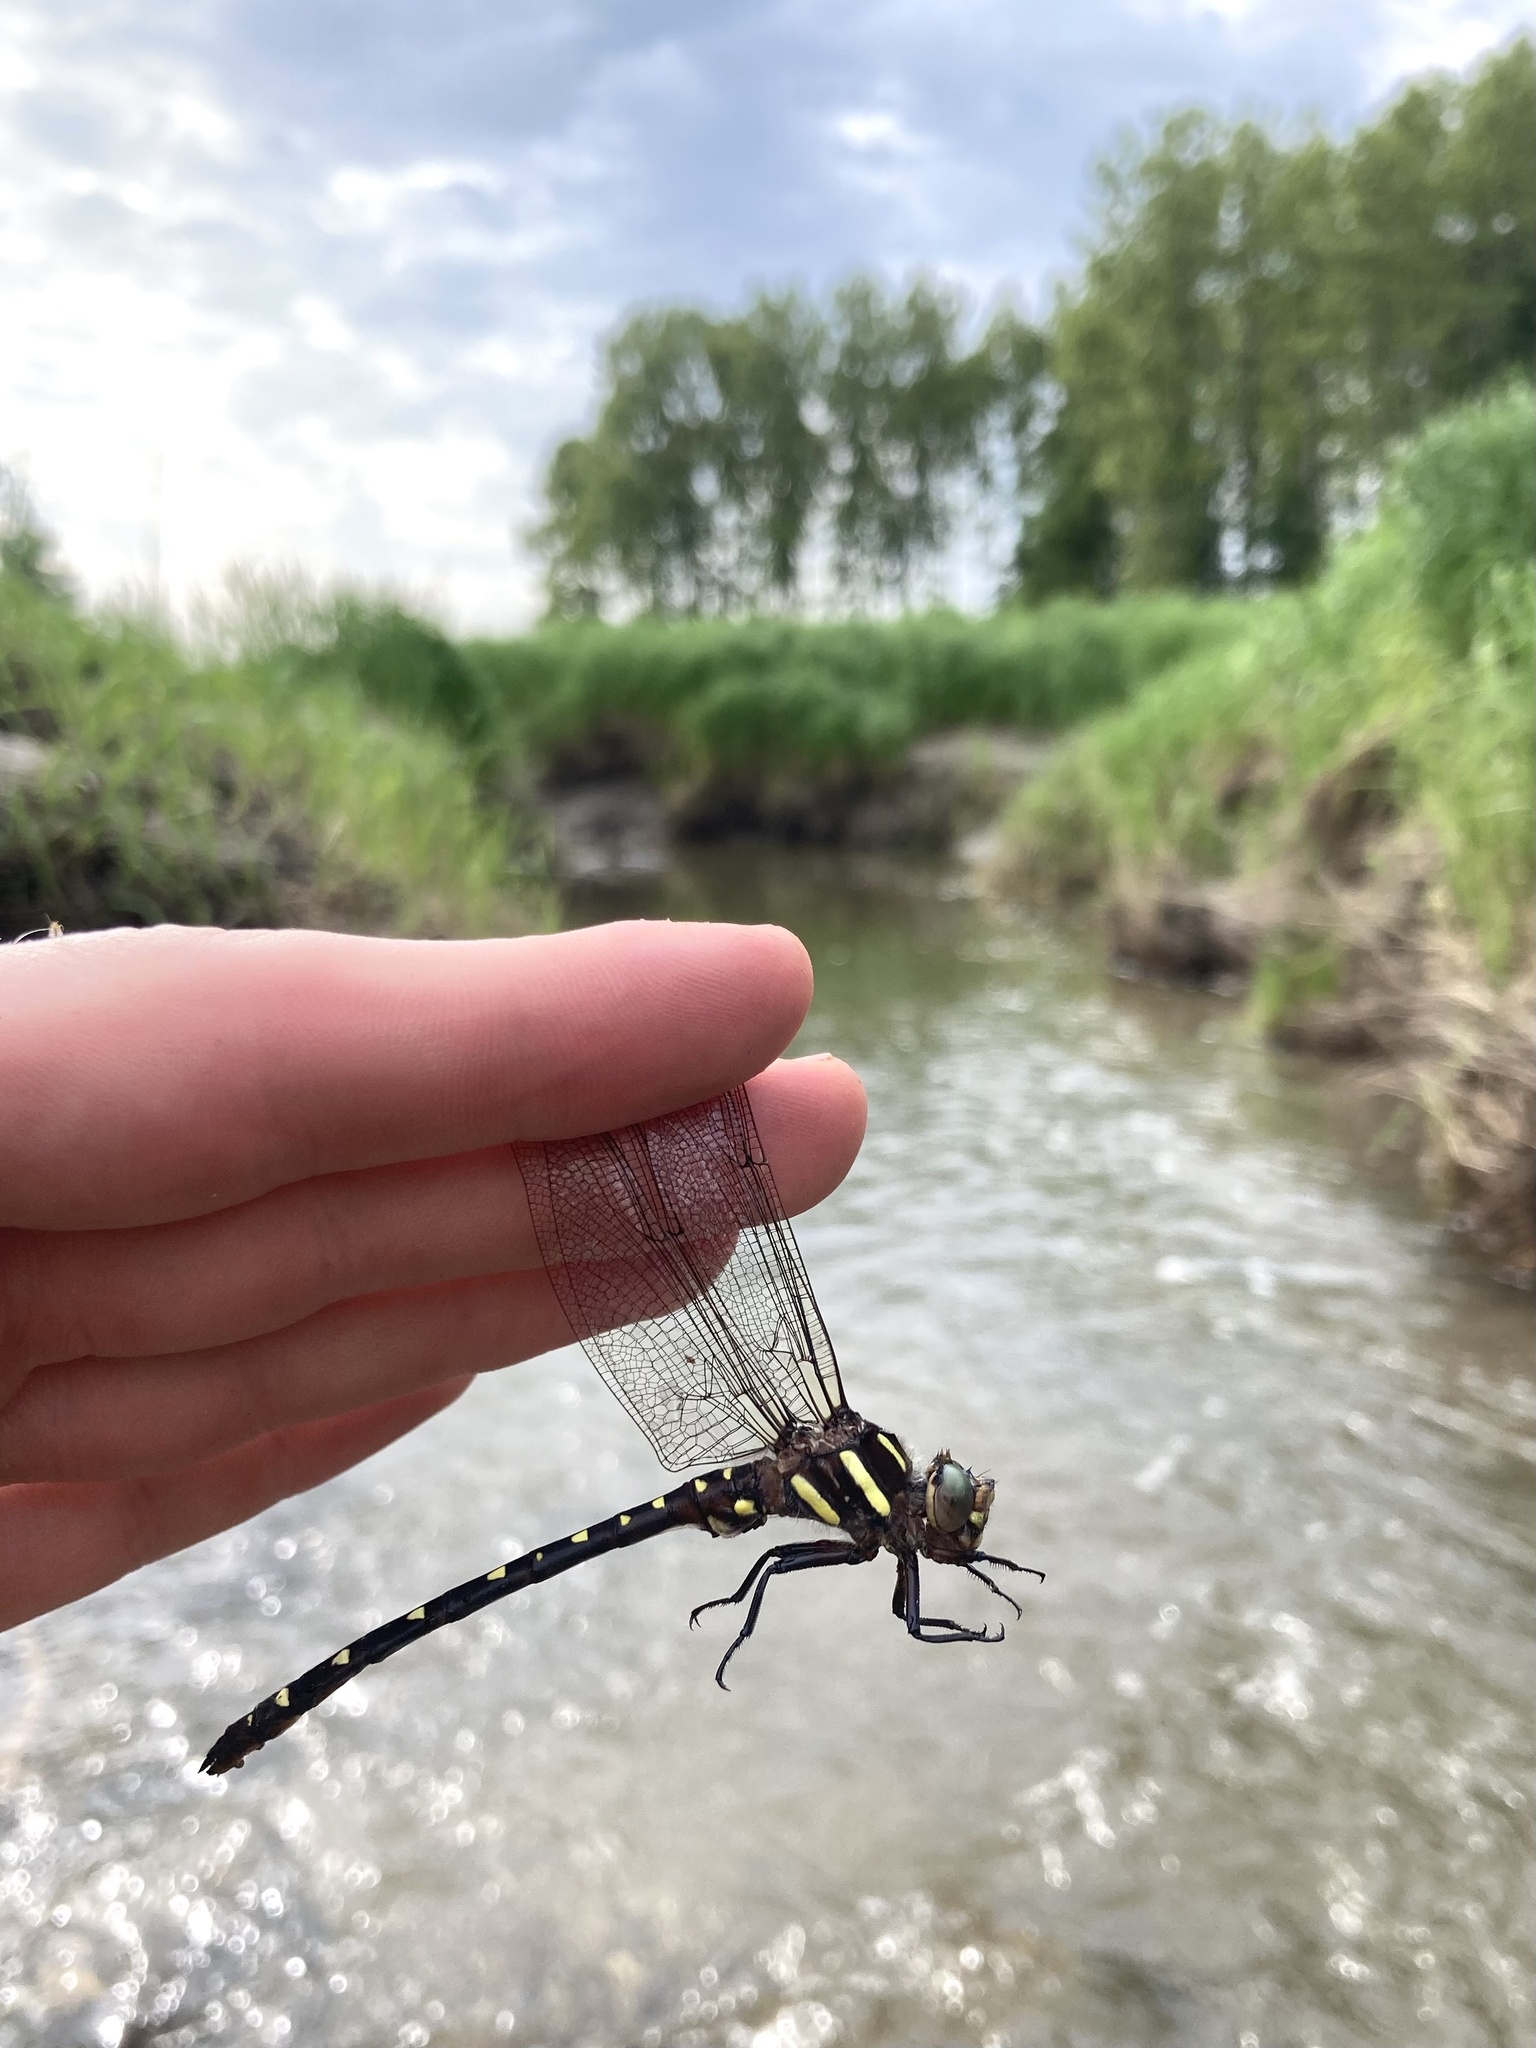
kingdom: Animalia
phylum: Arthropoda
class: Insecta
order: Odonata
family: Cordulegastridae
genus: Cordulegaster
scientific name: Cordulegaster maculata
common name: Twin-spotted spiketail
